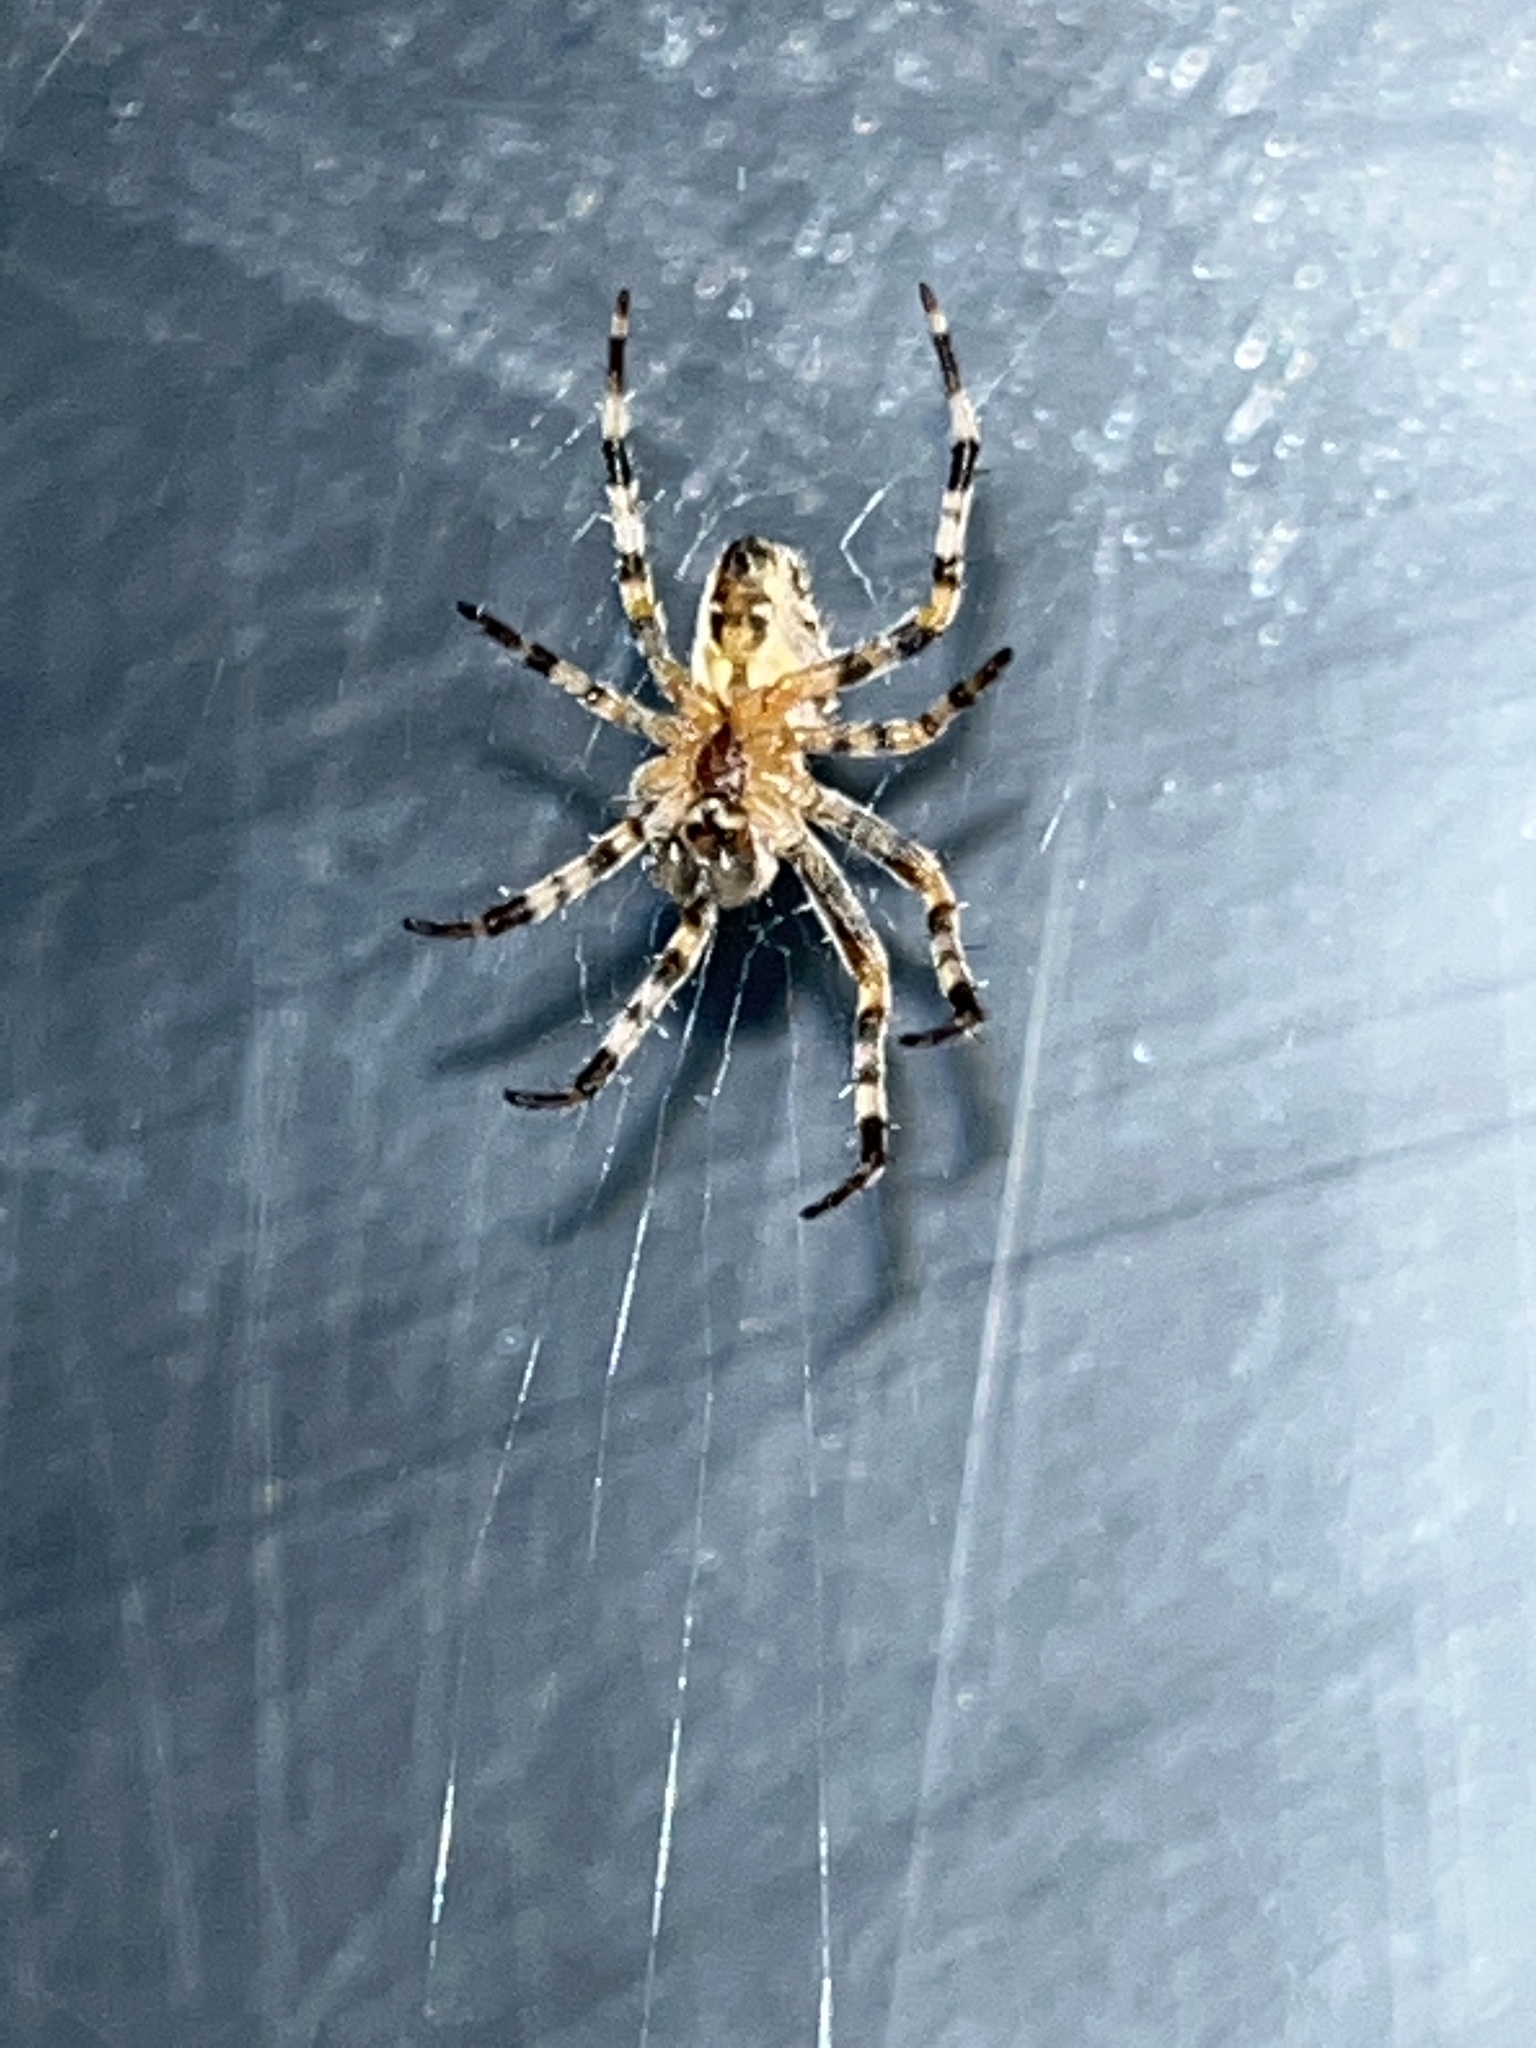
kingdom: Animalia
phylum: Arthropoda
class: Arachnida
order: Araneae
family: Araneidae
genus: Araneus
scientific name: Araneus diadematus
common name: Cross orbweaver
